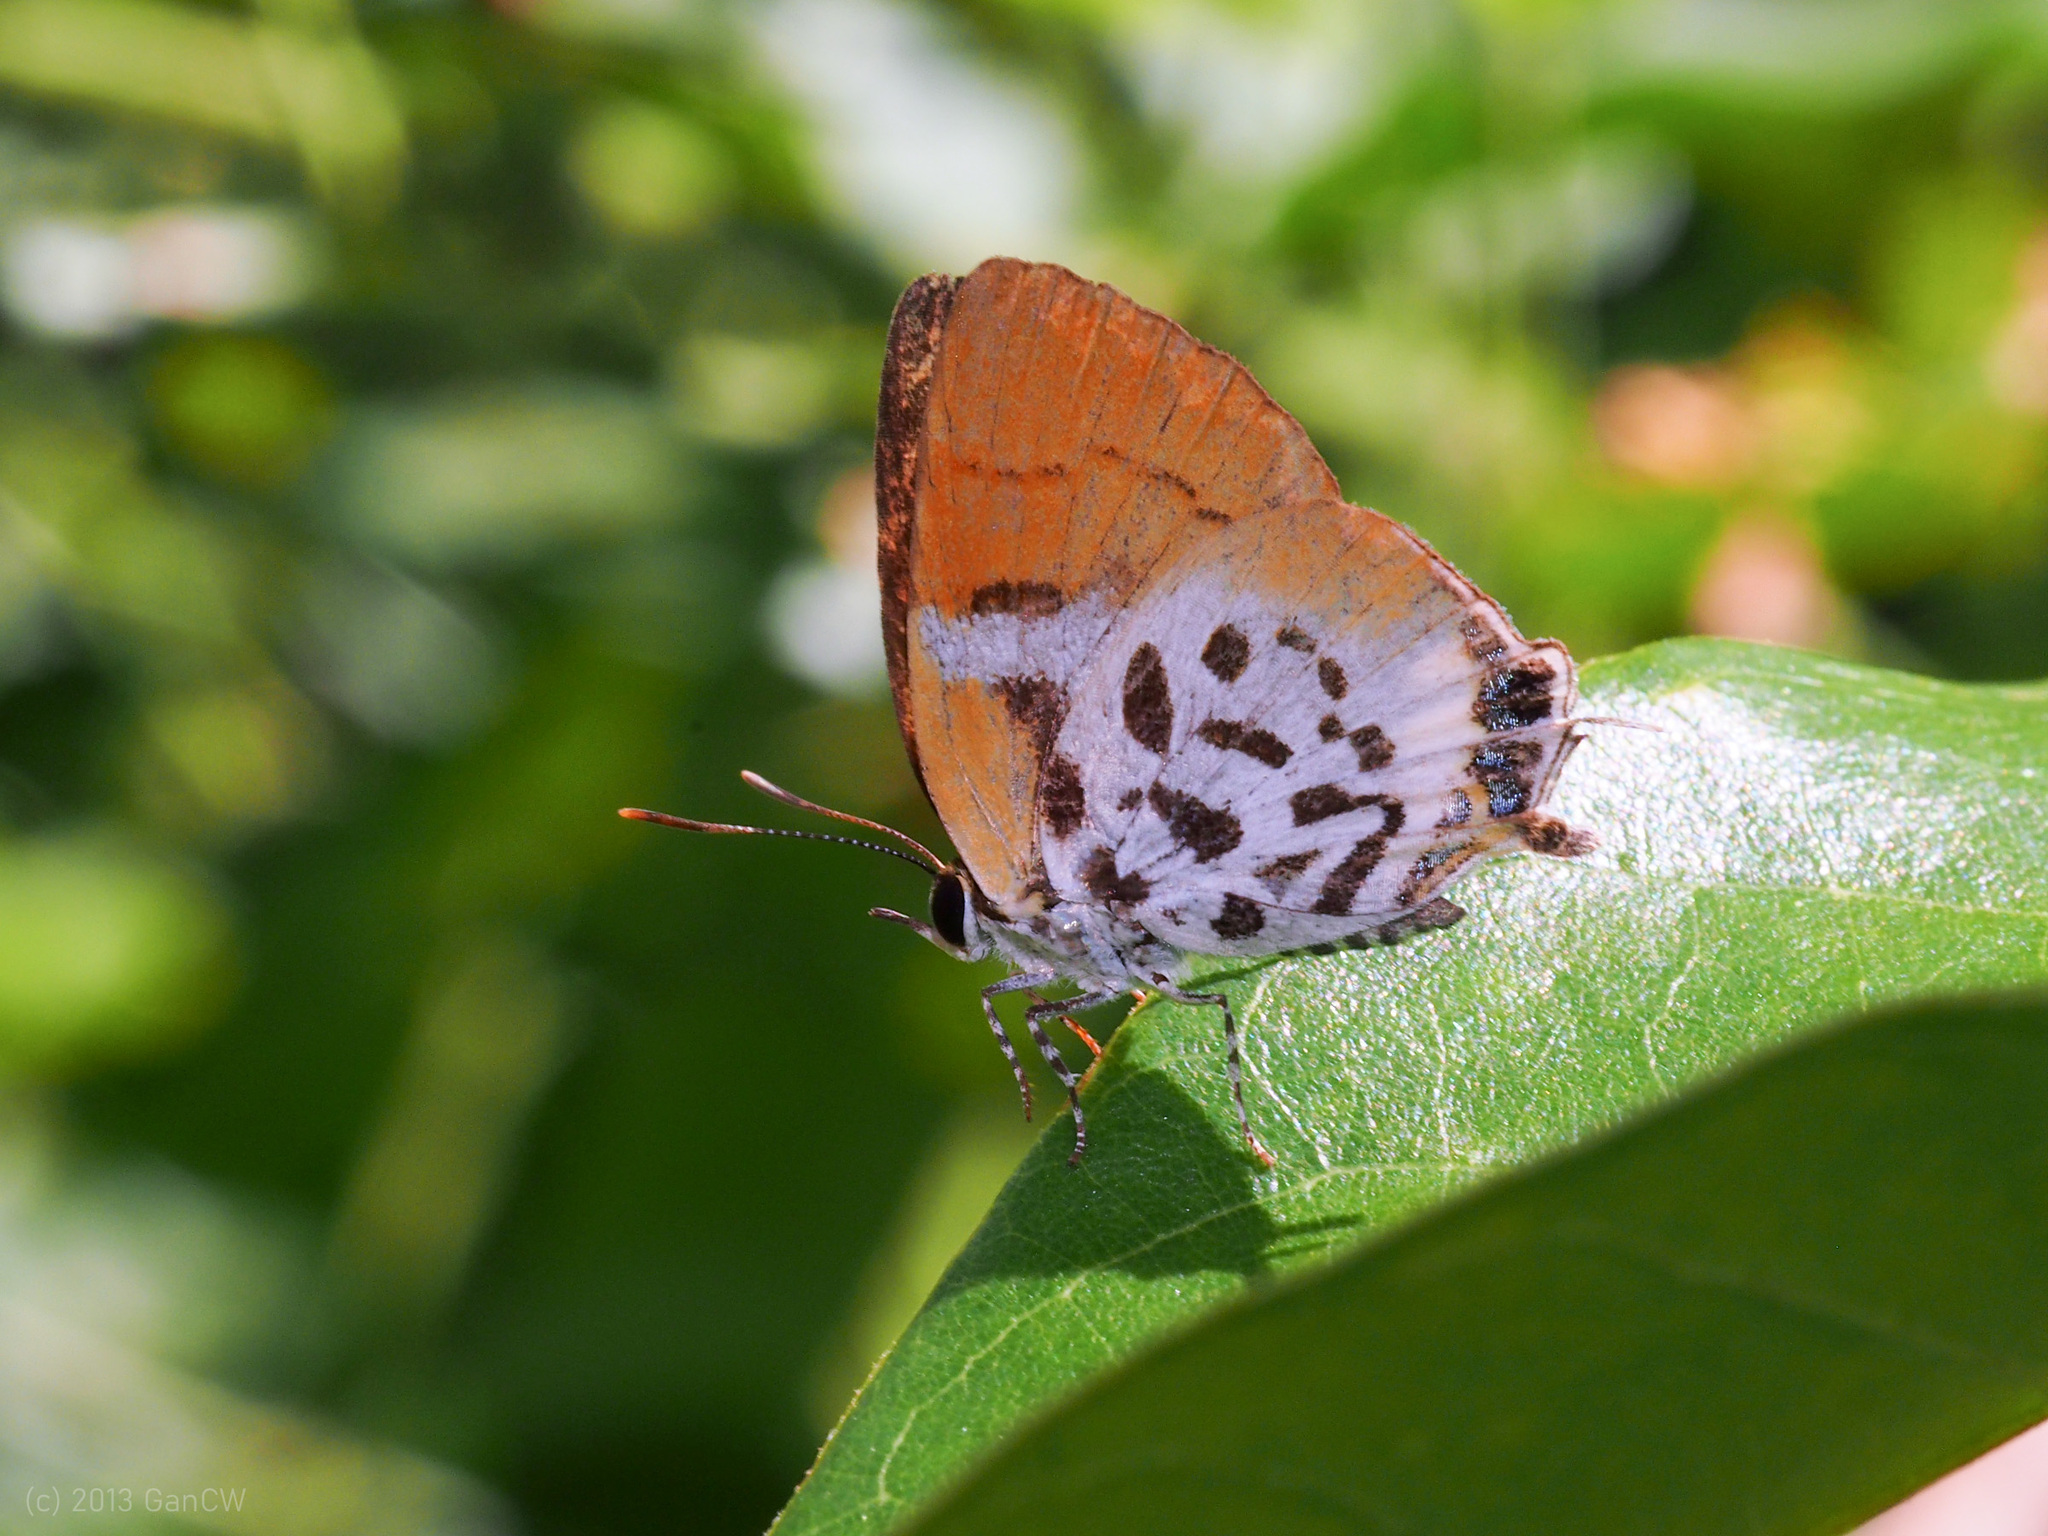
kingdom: Animalia
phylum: Arthropoda
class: Insecta
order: Lepidoptera
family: Lycaenidae
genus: Araotes
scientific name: Araotes lapithis
